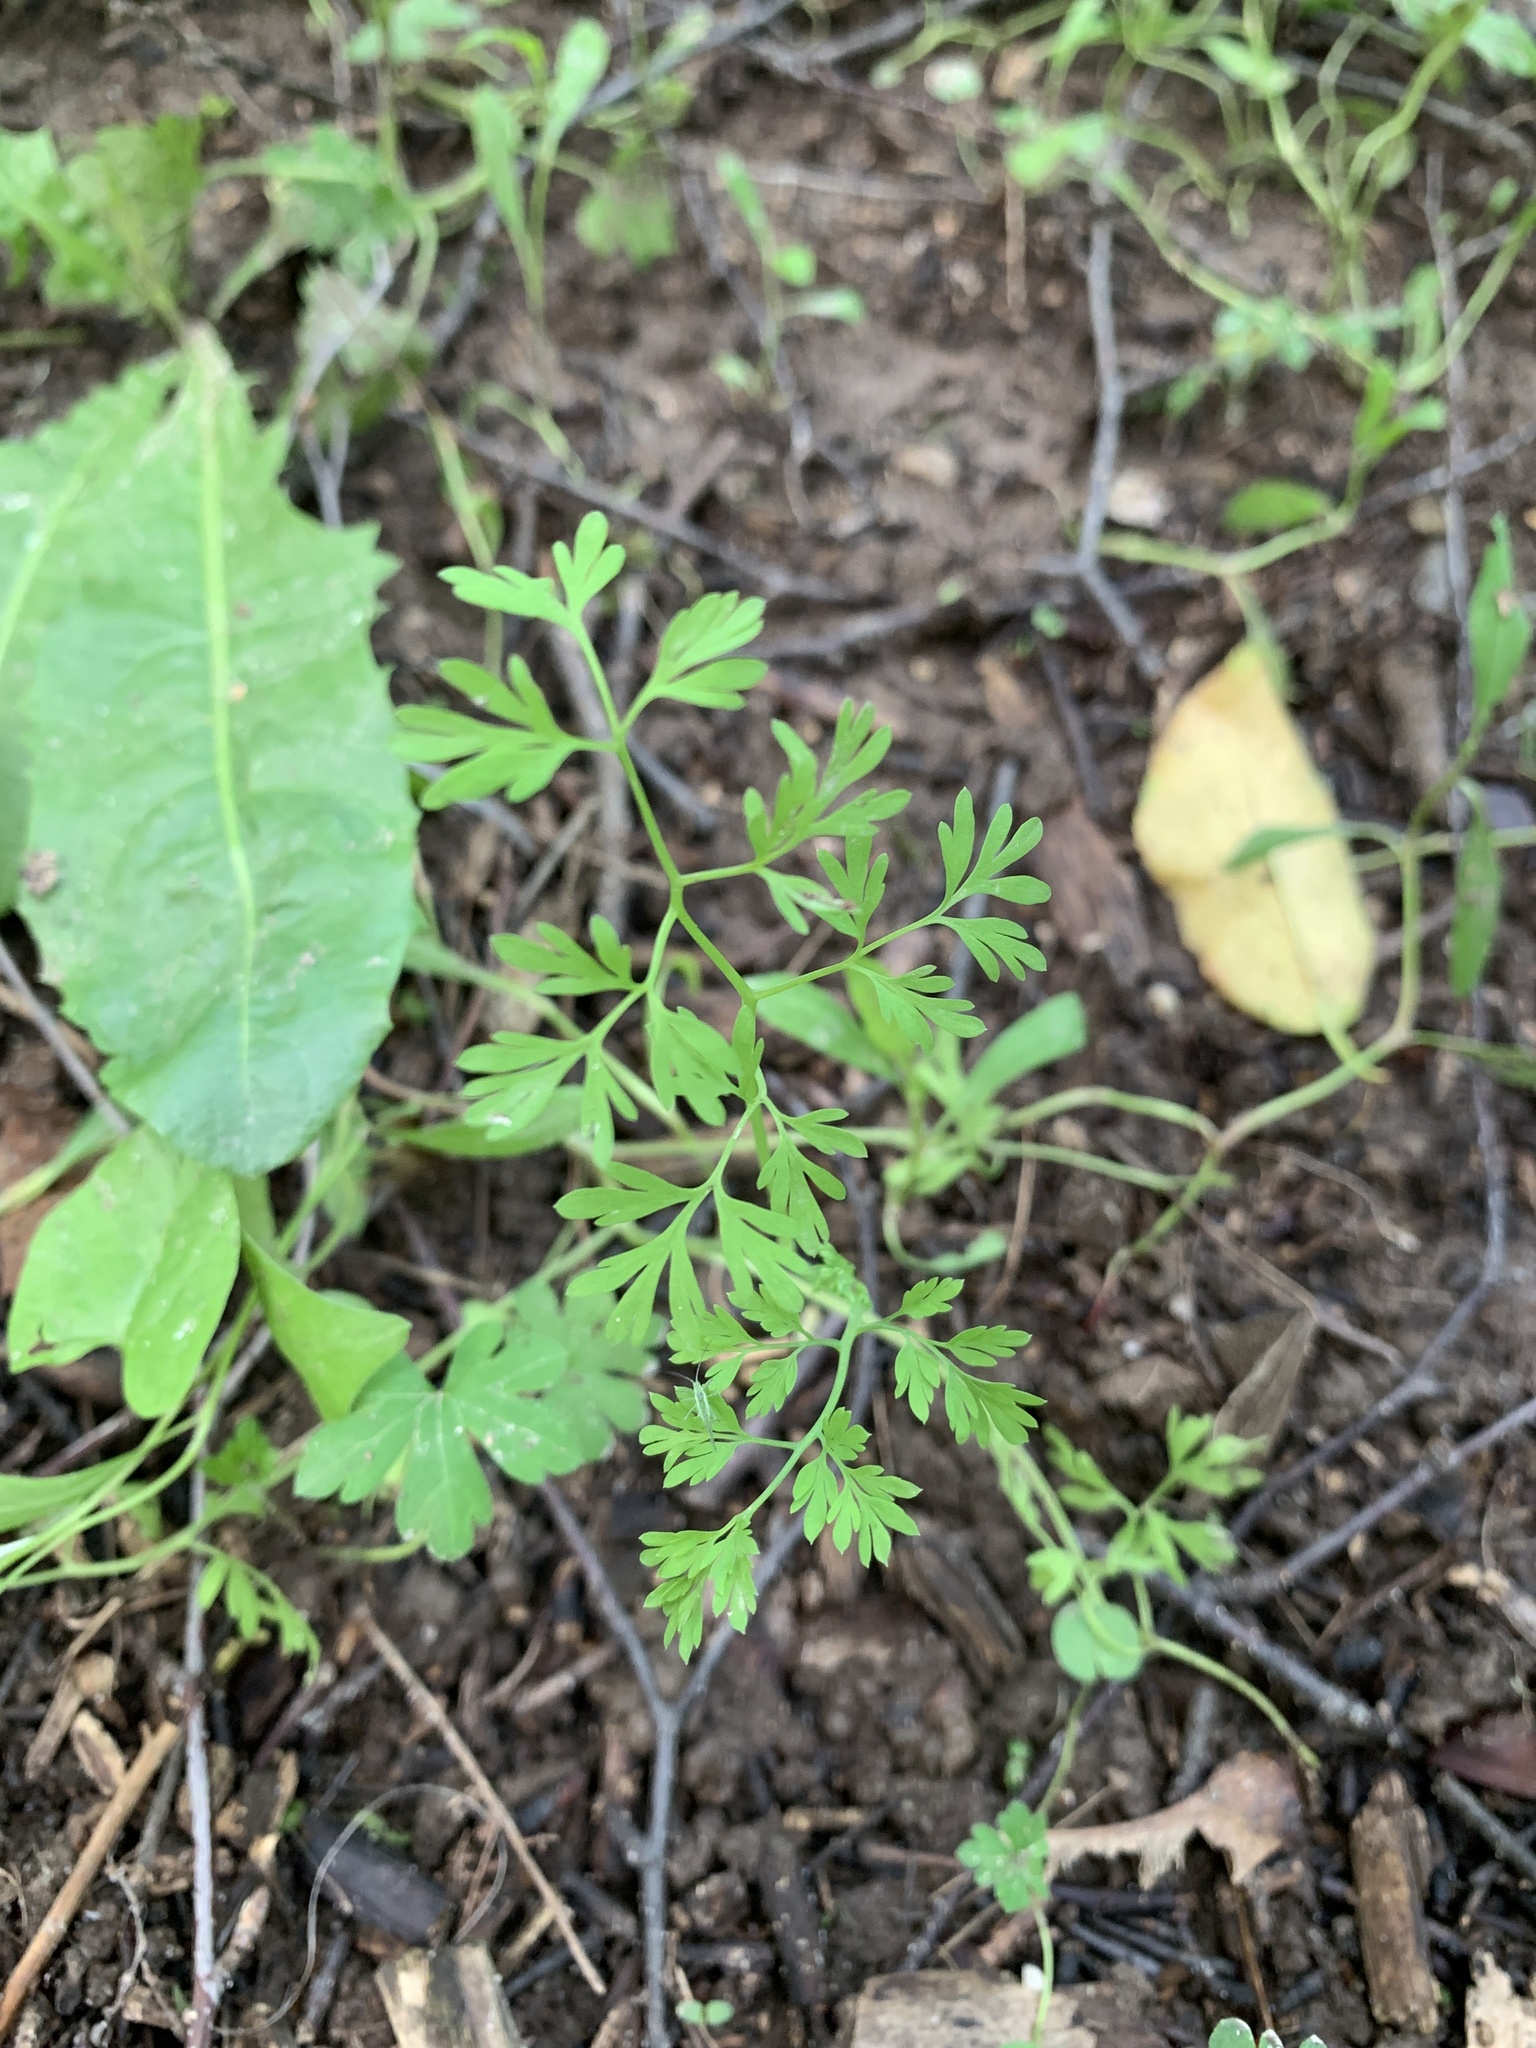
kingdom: Plantae
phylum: Tracheophyta
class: Magnoliopsida
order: Ranunculales
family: Papaveraceae
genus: Fumaria
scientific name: Fumaria officinalis
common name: Common fumitory
